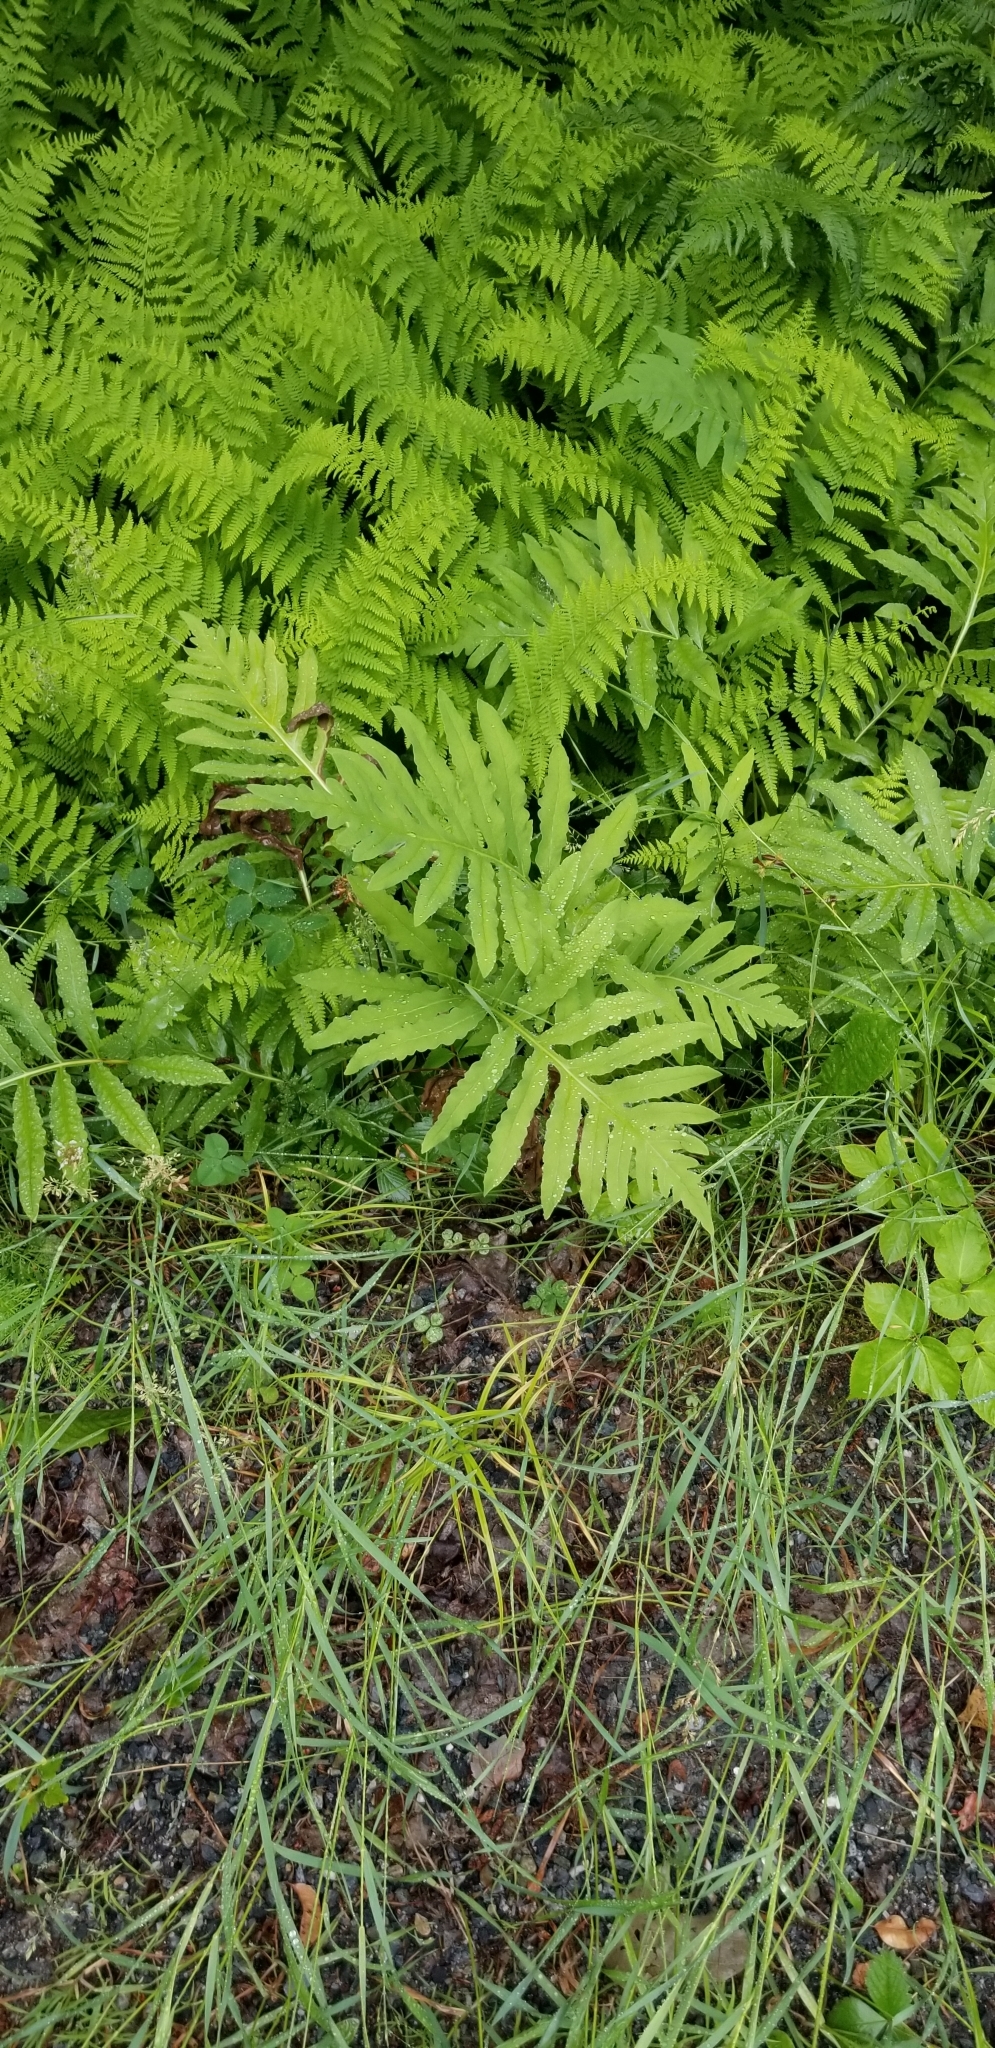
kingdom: Plantae
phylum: Tracheophyta
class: Polypodiopsida
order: Polypodiales
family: Onocleaceae
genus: Onoclea
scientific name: Onoclea sensibilis
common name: Sensitive fern
